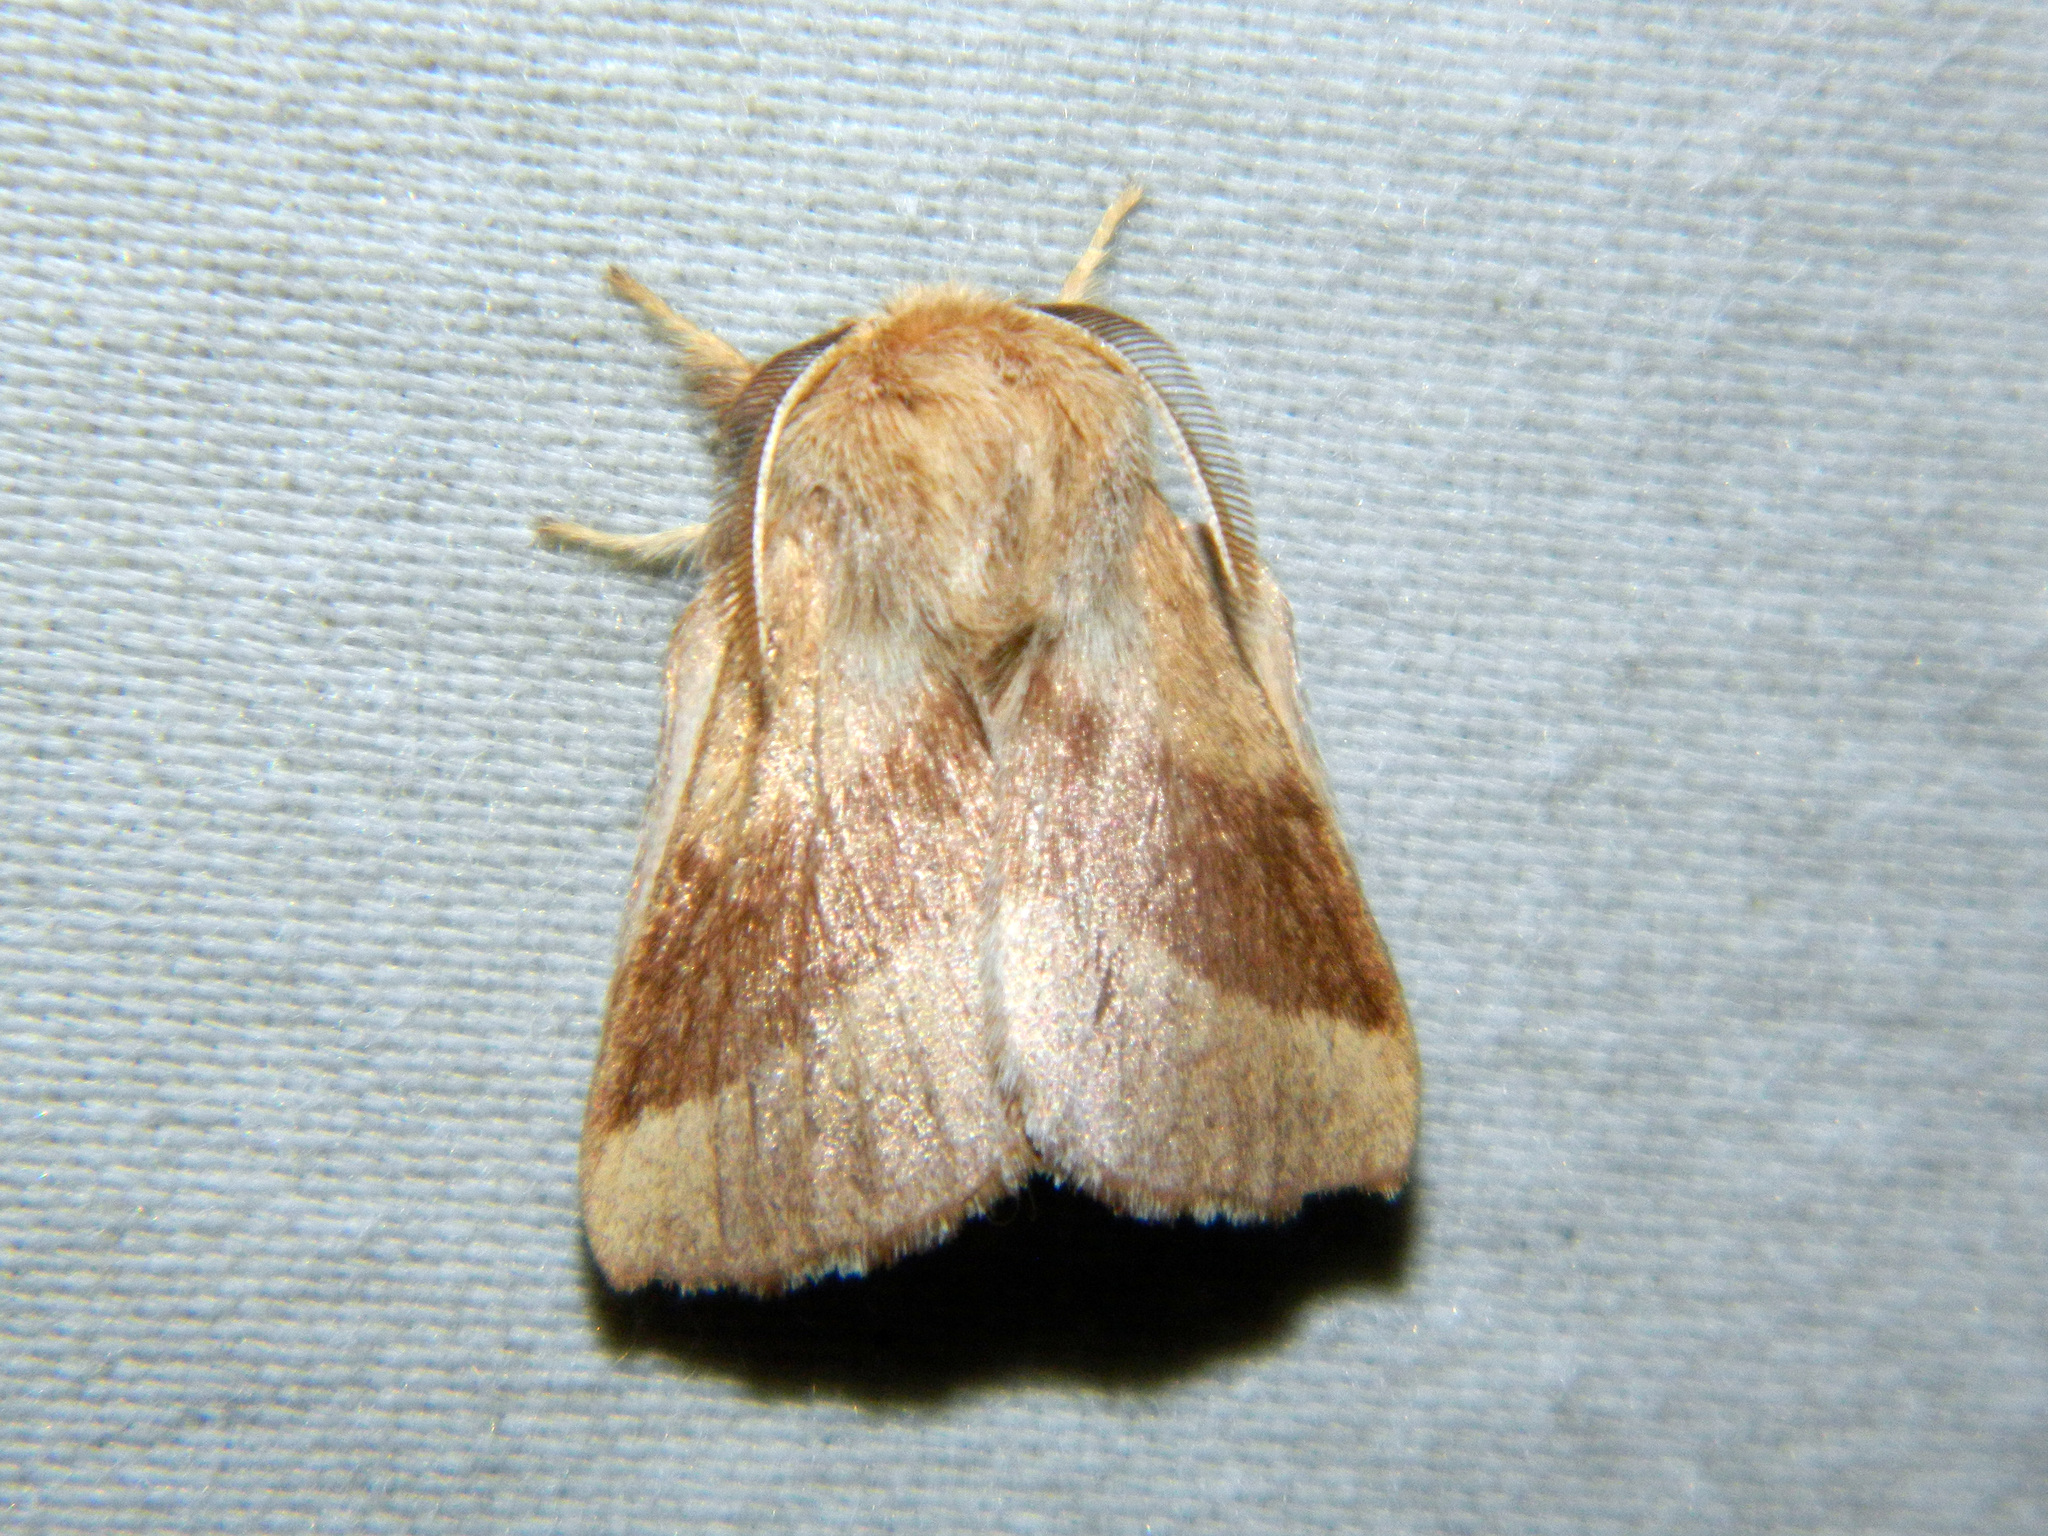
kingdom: Animalia
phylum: Arthropoda
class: Insecta
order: Lepidoptera
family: Lasiocampidae
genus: Malacosoma
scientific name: Malacosoma disstria
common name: Forest tent caterpillar
